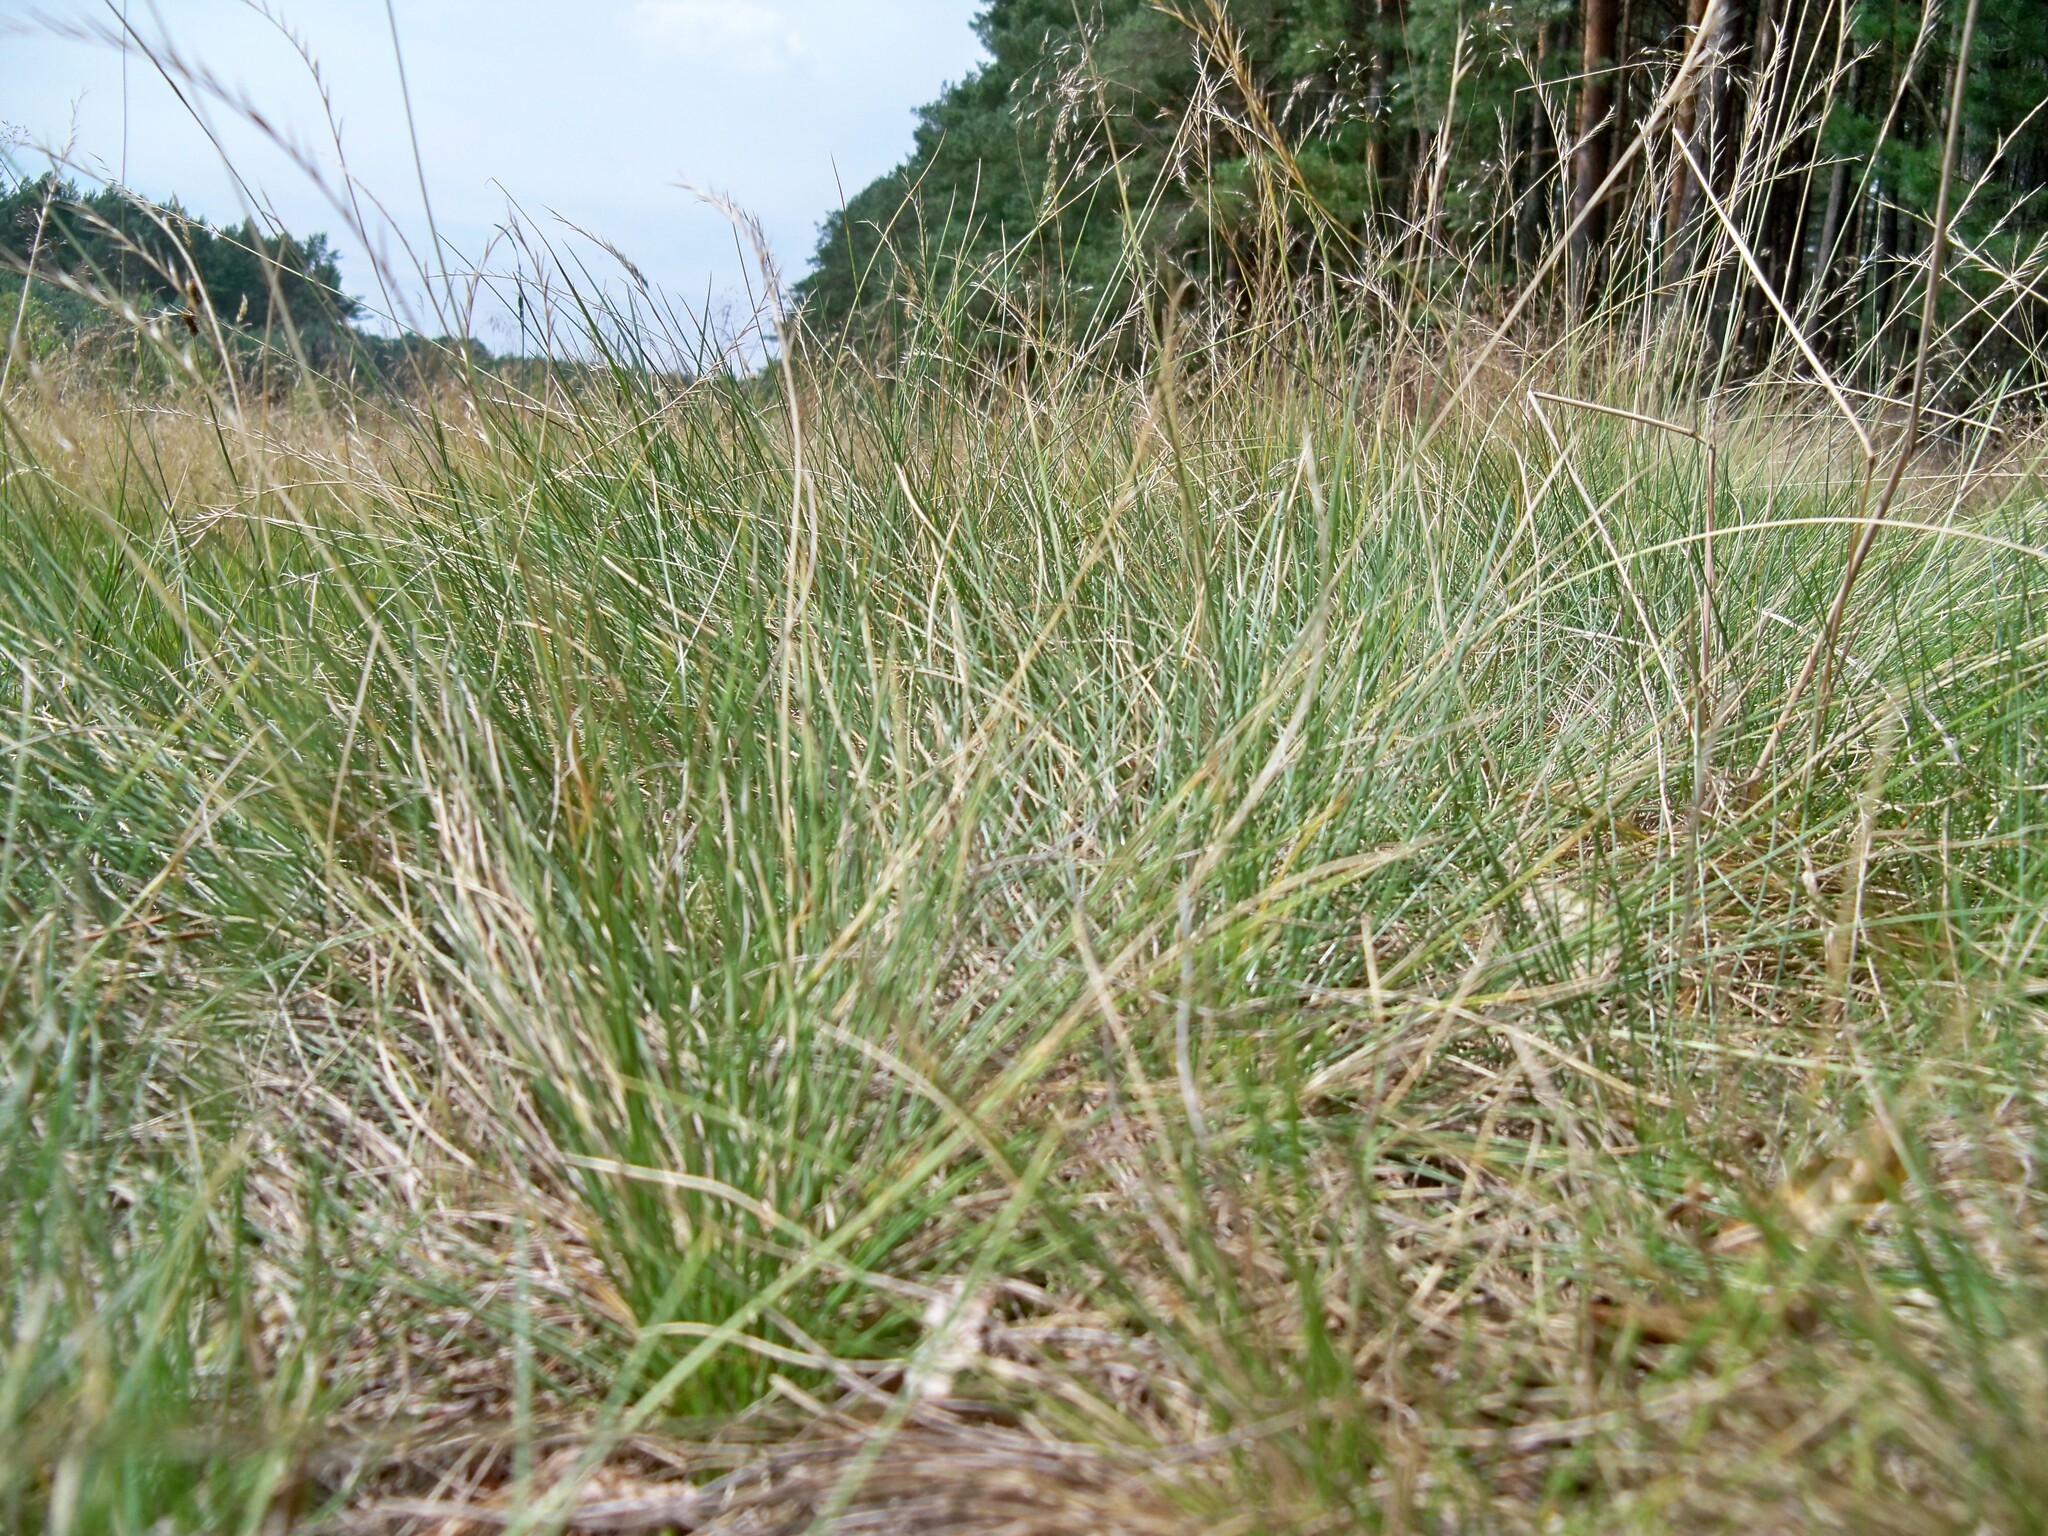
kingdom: Plantae
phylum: Tracheophyta
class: Liliopsida
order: Poales
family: Poaceae
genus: Nardus
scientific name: Nardus stricta
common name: Mat-grass
